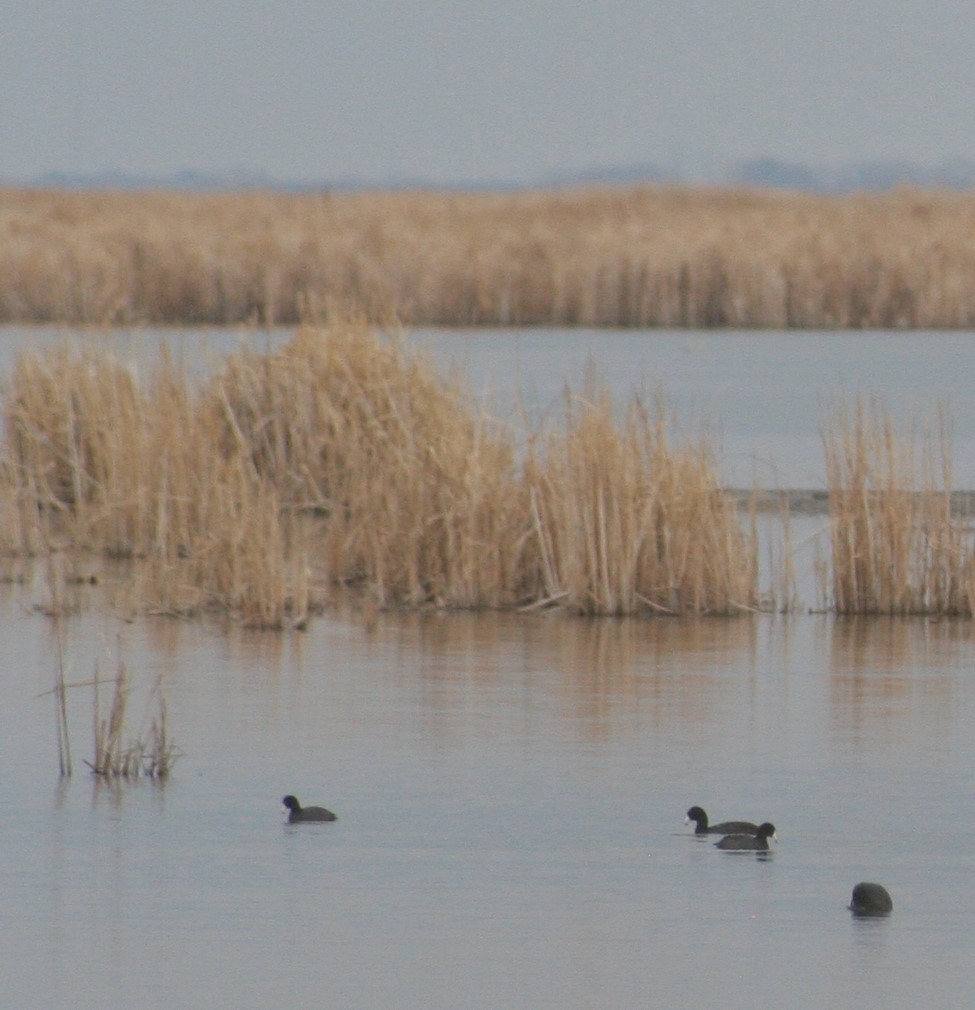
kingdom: Animalia
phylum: Chordata
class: Aves
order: Gruiformes
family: Rallidae
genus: Fulica
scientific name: Fulica americana
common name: American coot
